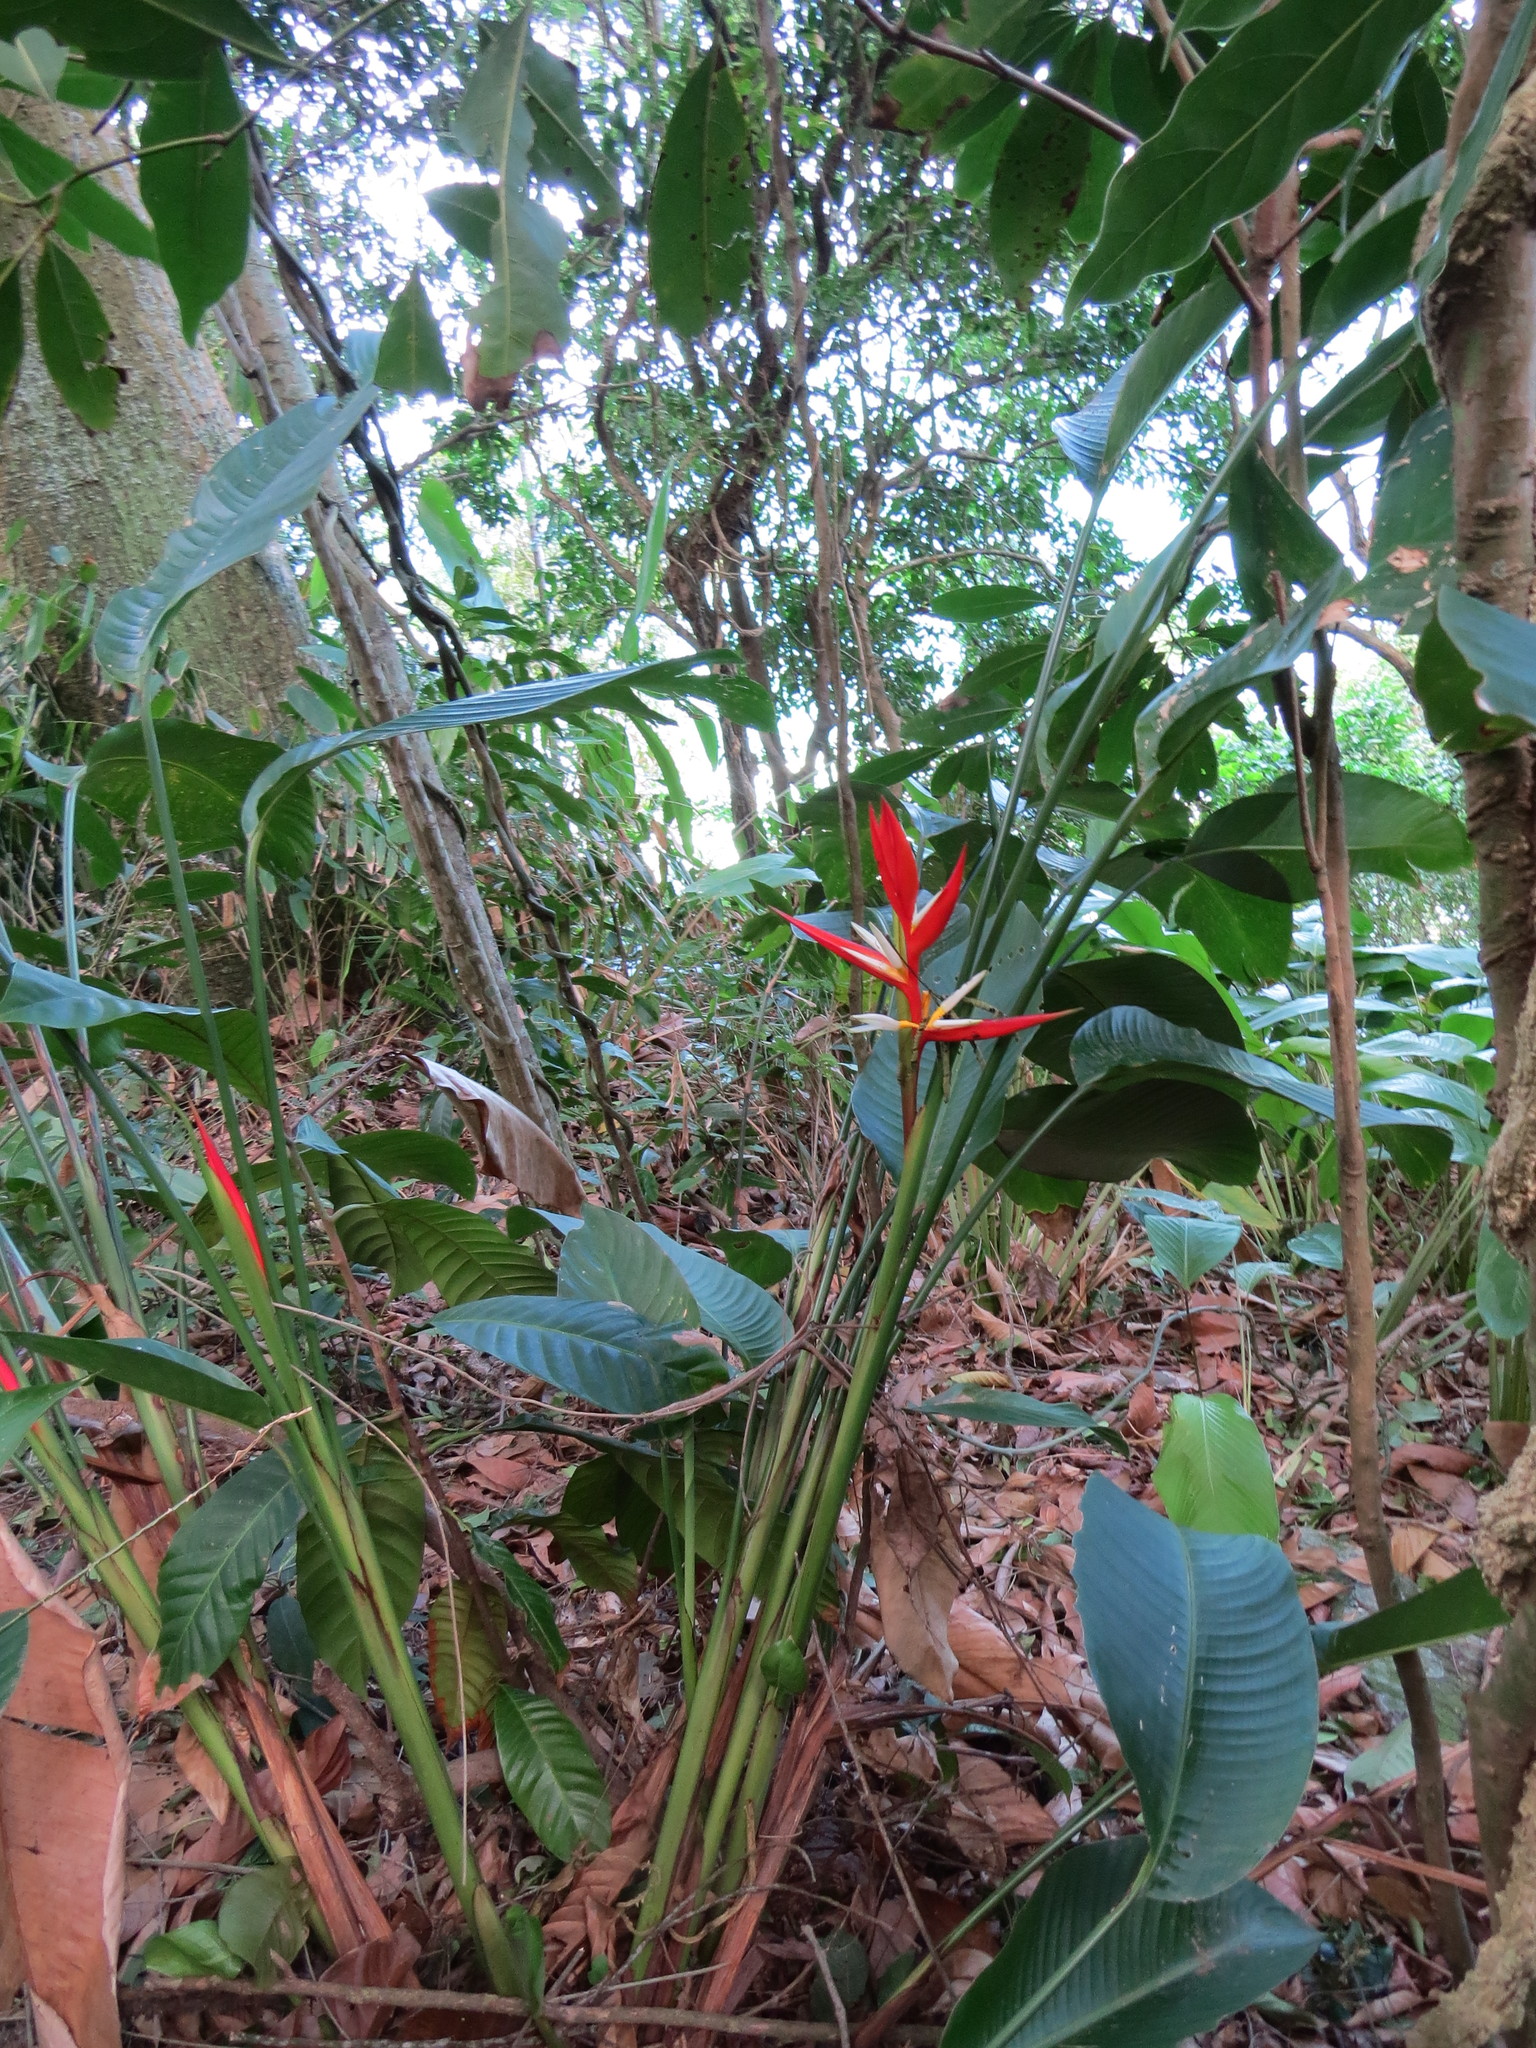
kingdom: Plantae
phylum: Tracheophyta
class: Liliopsida
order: Zingiberales
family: Heliconiaceae
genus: Heliconia
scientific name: Heliconia angusta
